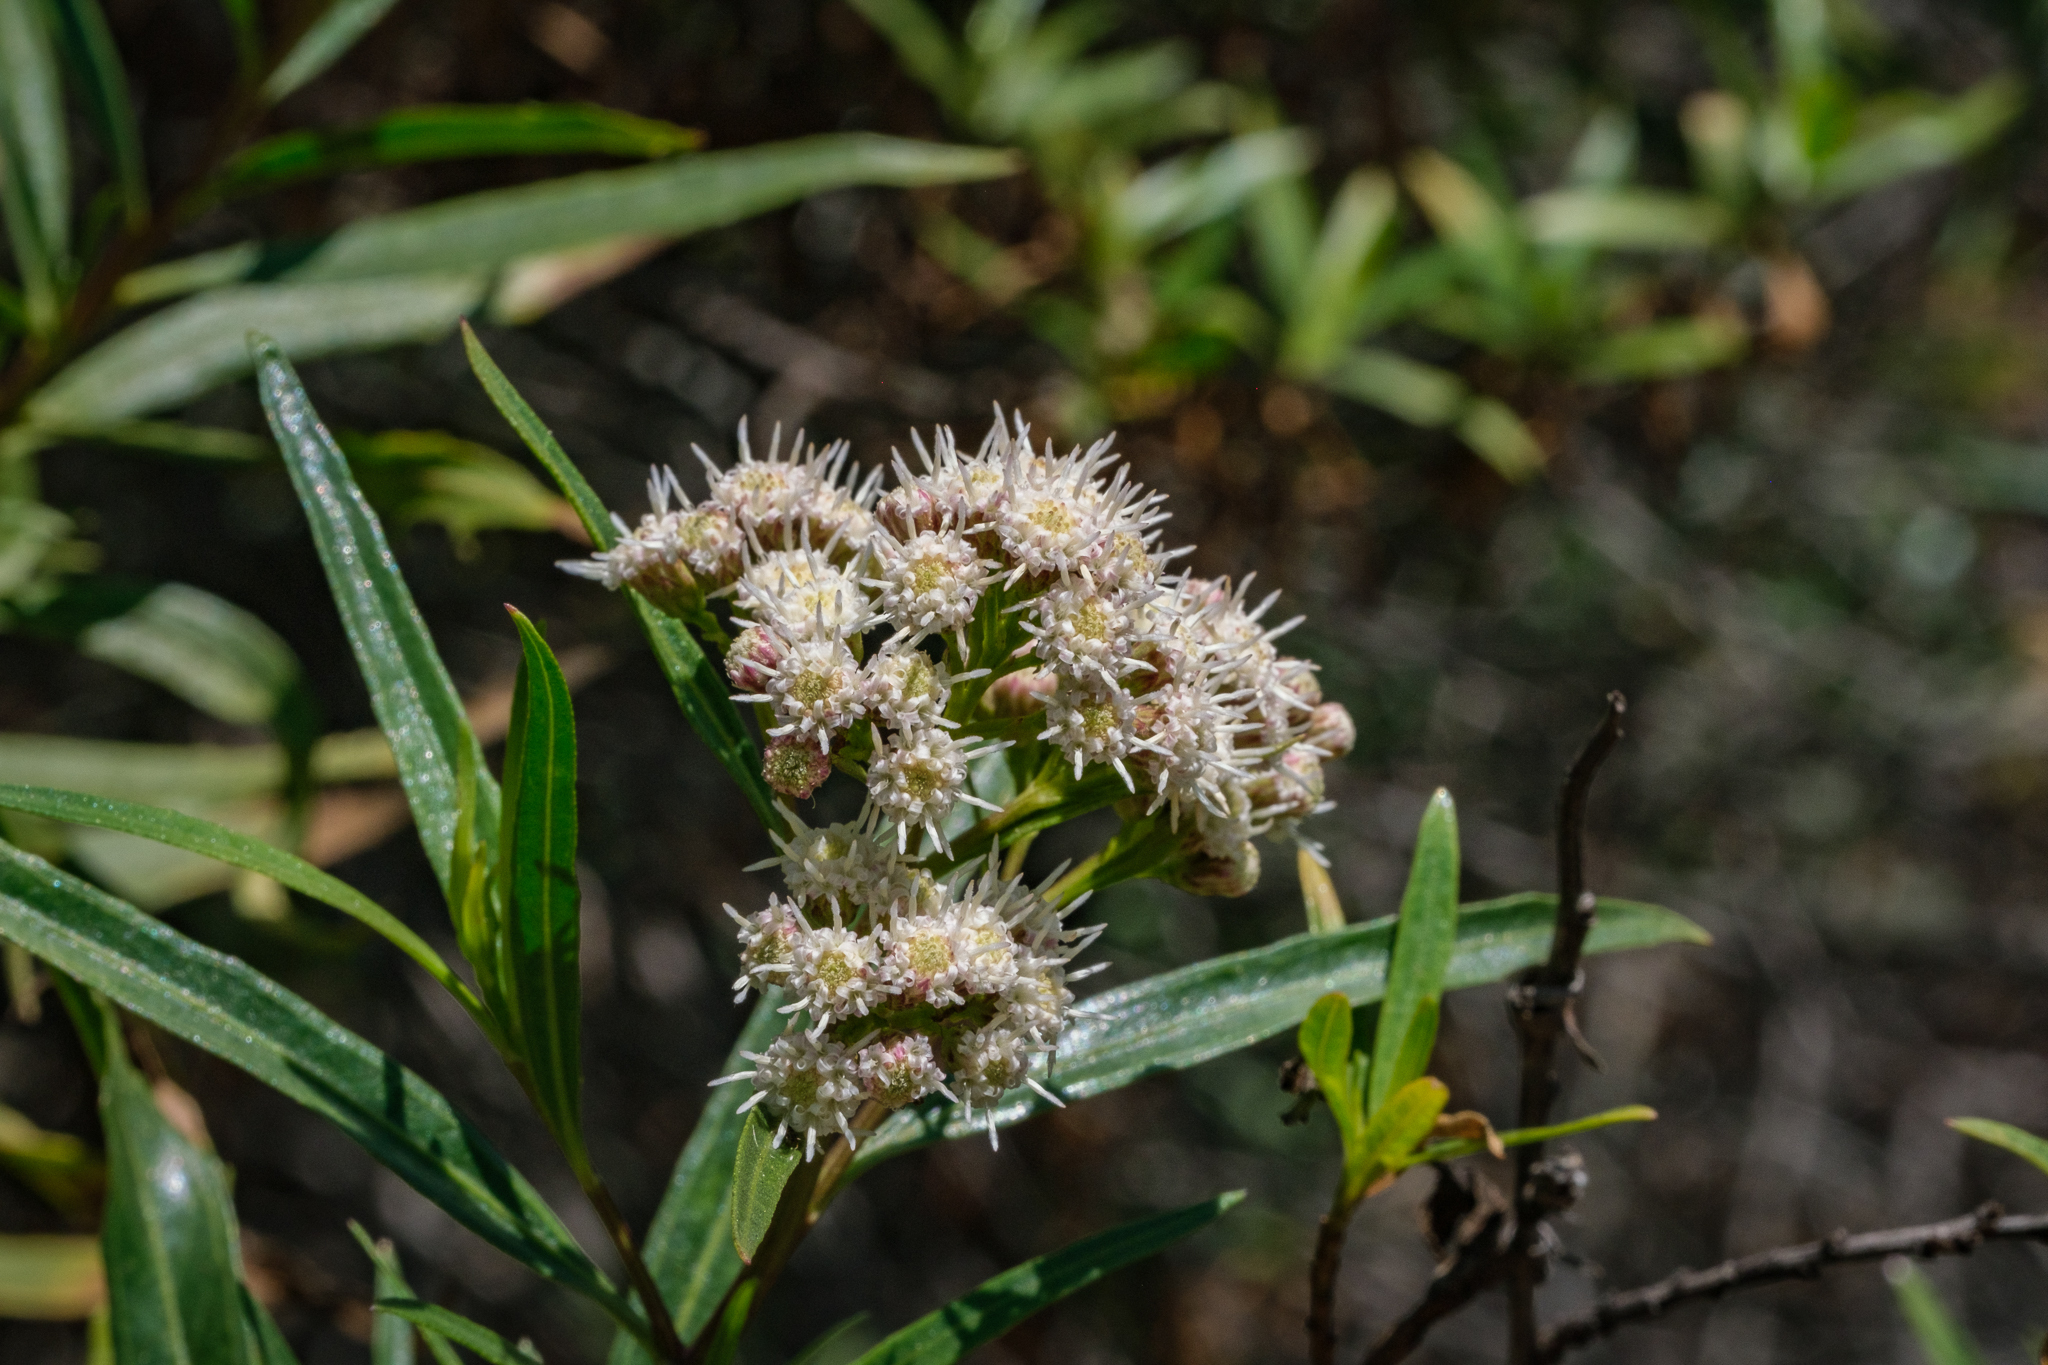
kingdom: Plantae
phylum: Tracheophyta
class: Magnoliopsida
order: Asterales
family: Asteraceae
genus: Baccharis
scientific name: Baccharis salicifolia
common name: Sticky baccharis
